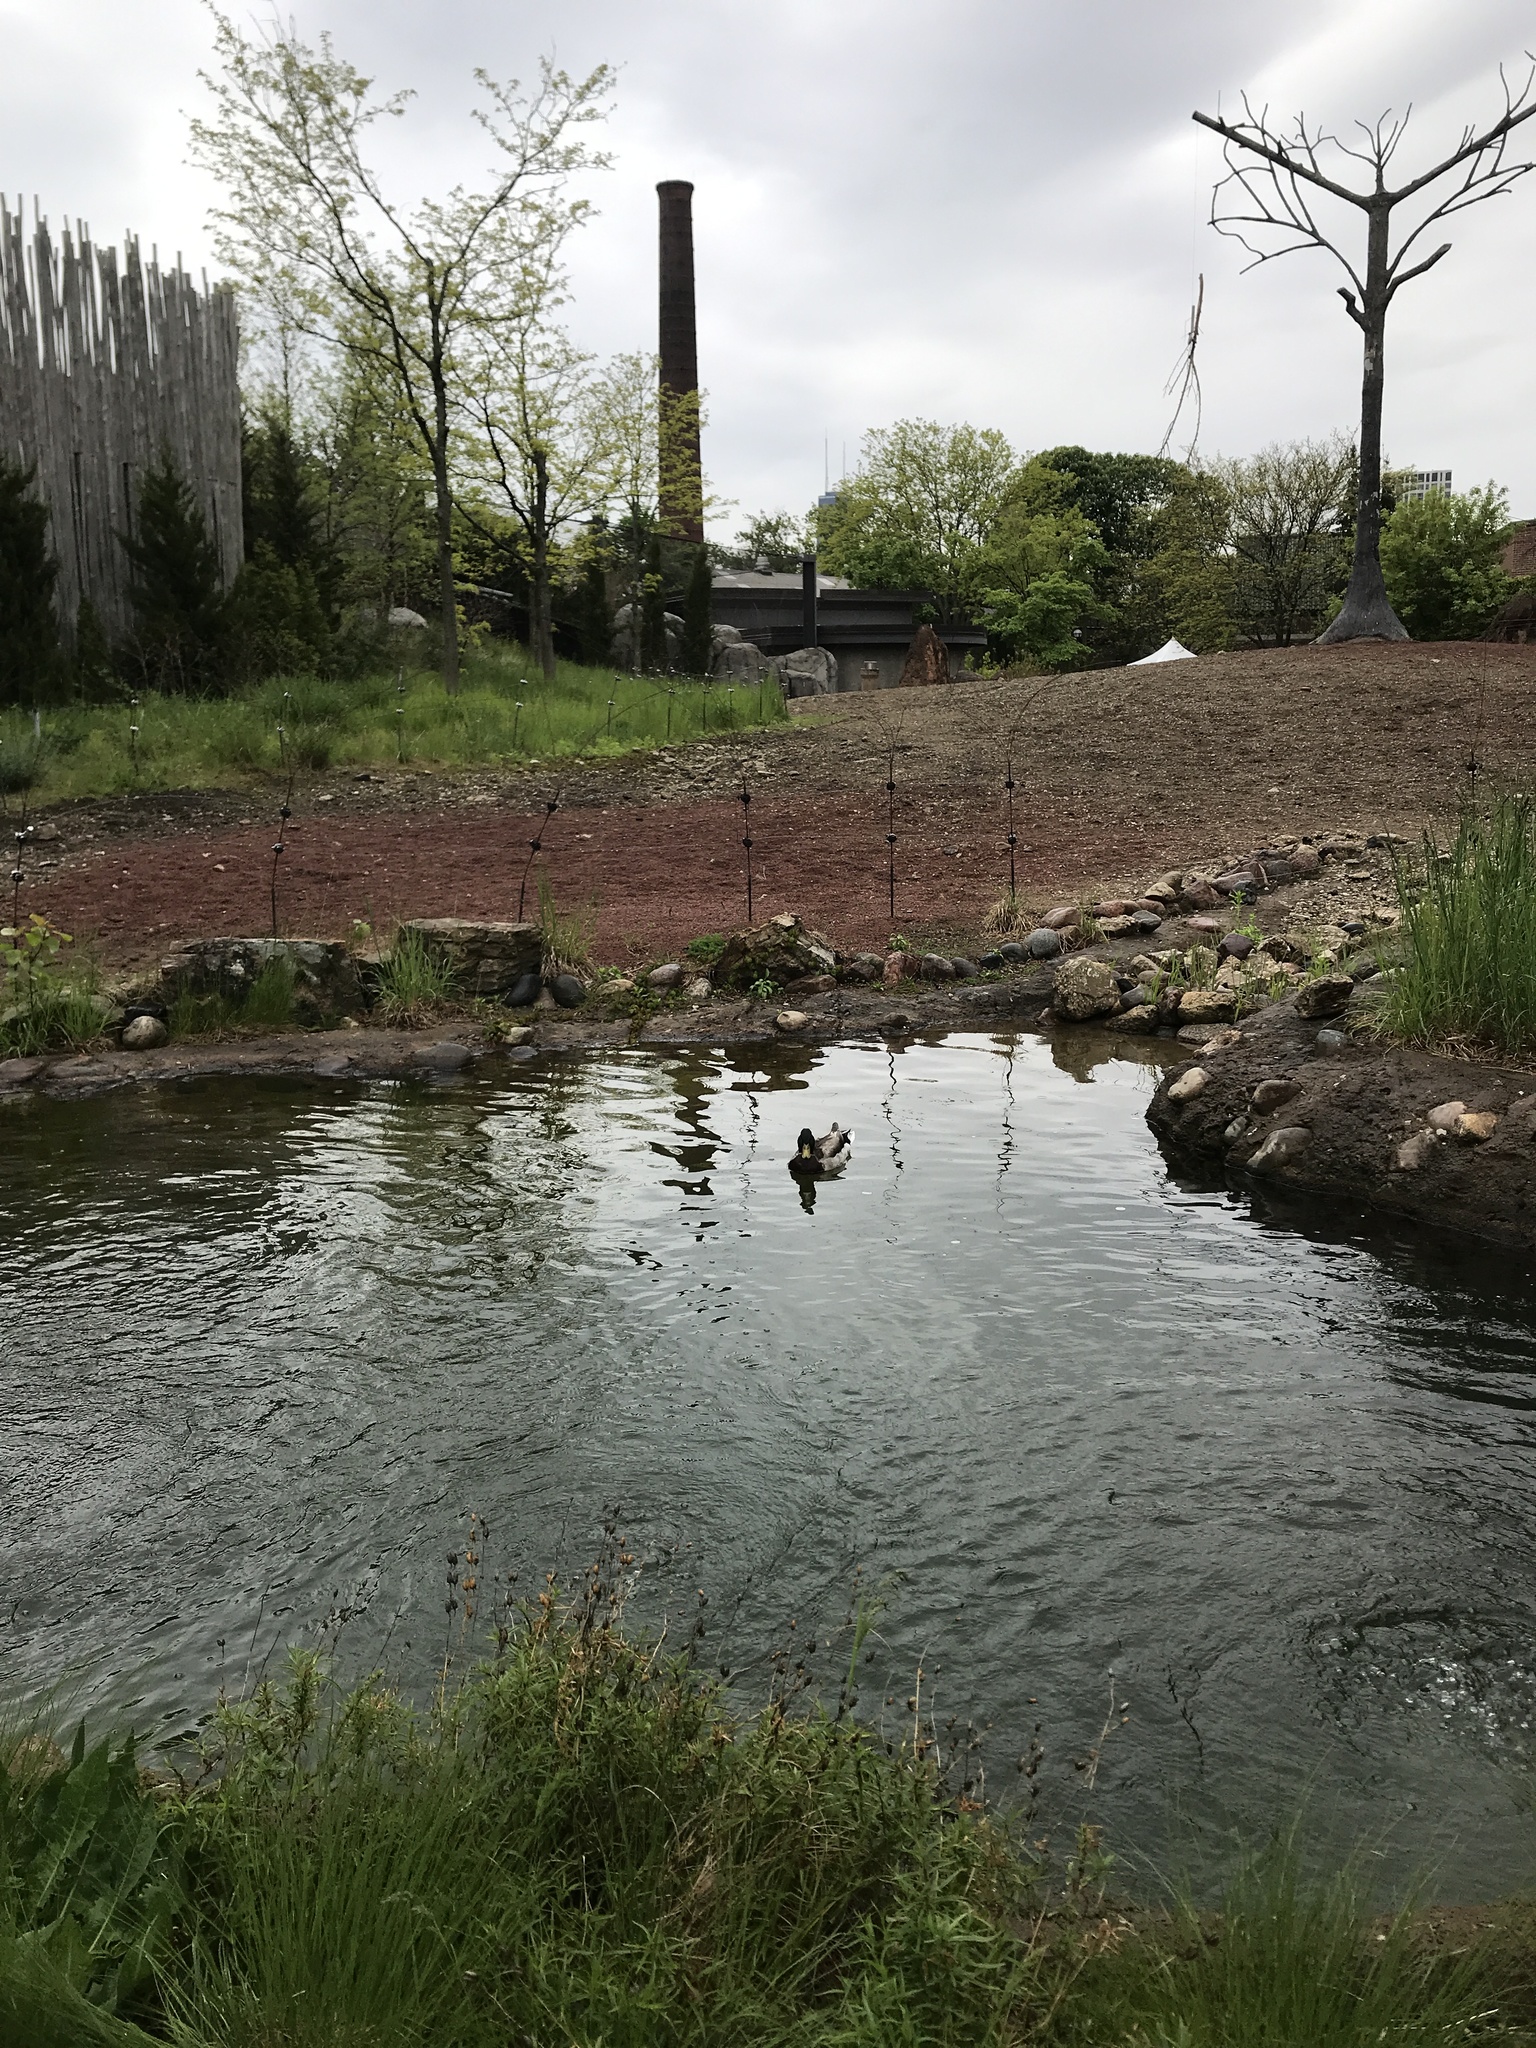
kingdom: Animalia
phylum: Chordata
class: Aves
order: Anseriformes
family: Anatidae
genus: Anas
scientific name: Anas platyrhynchos
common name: Mallard
